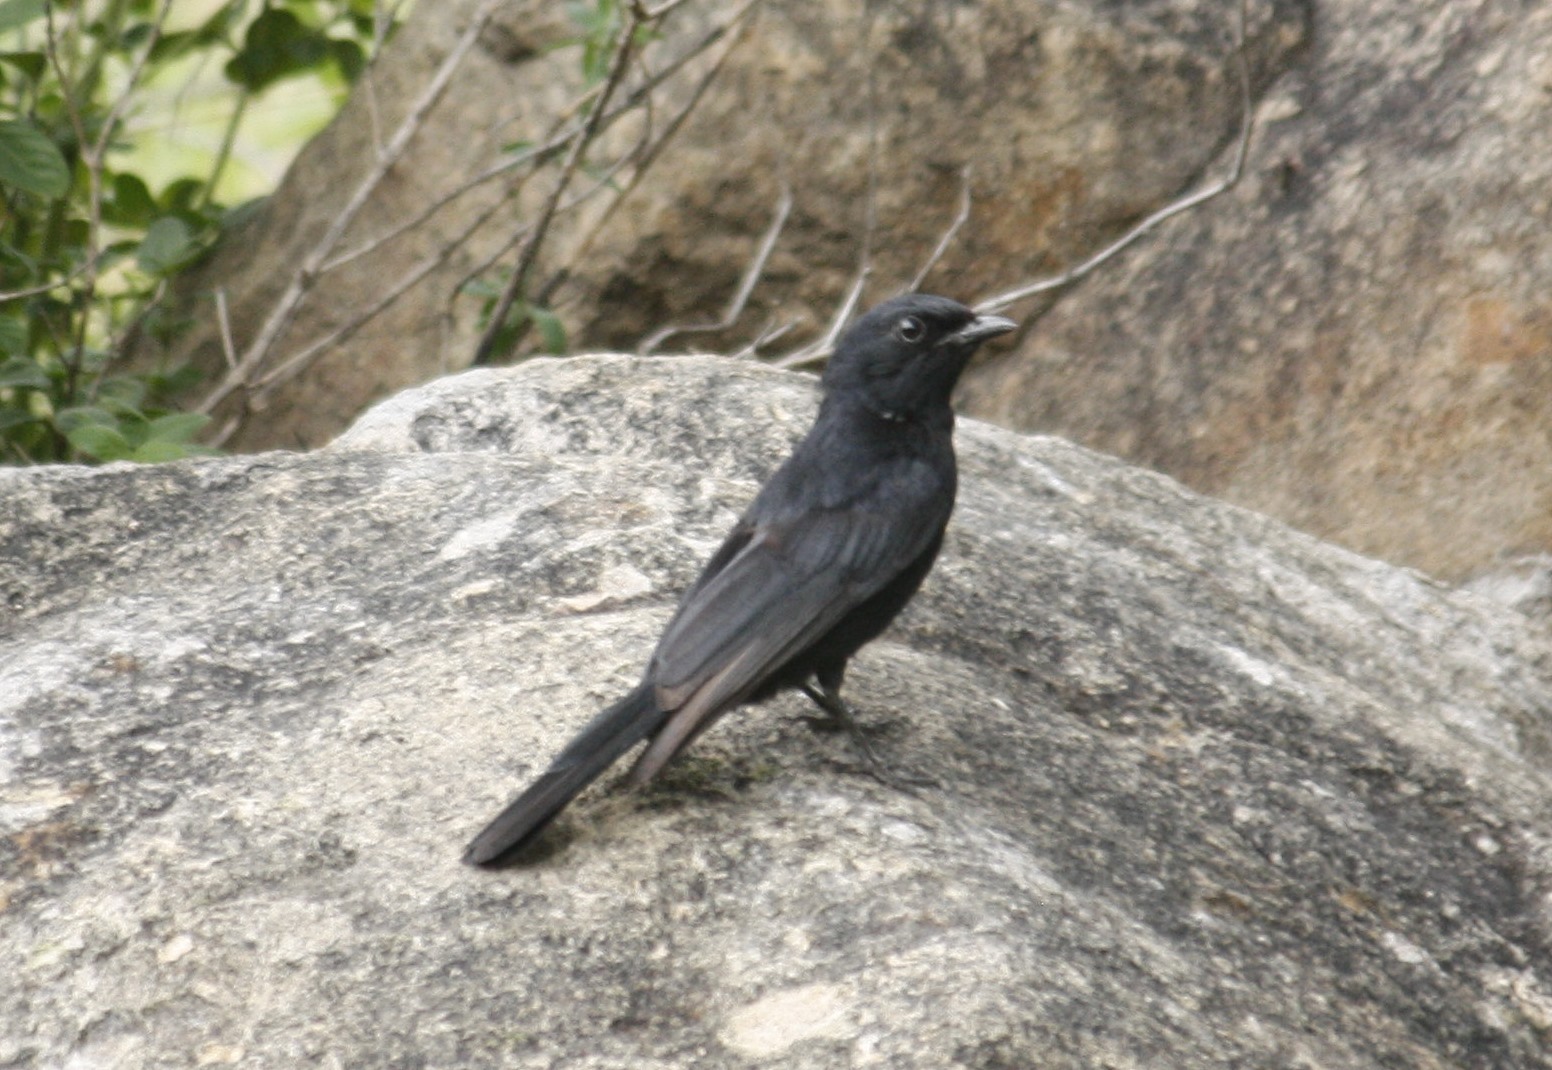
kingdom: Animalia
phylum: Chordata
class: Aves
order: Passeriformes
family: Muscicapidae
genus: Melaenornis
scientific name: Melaenornis pammelaina
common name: Southern black flycatcher
